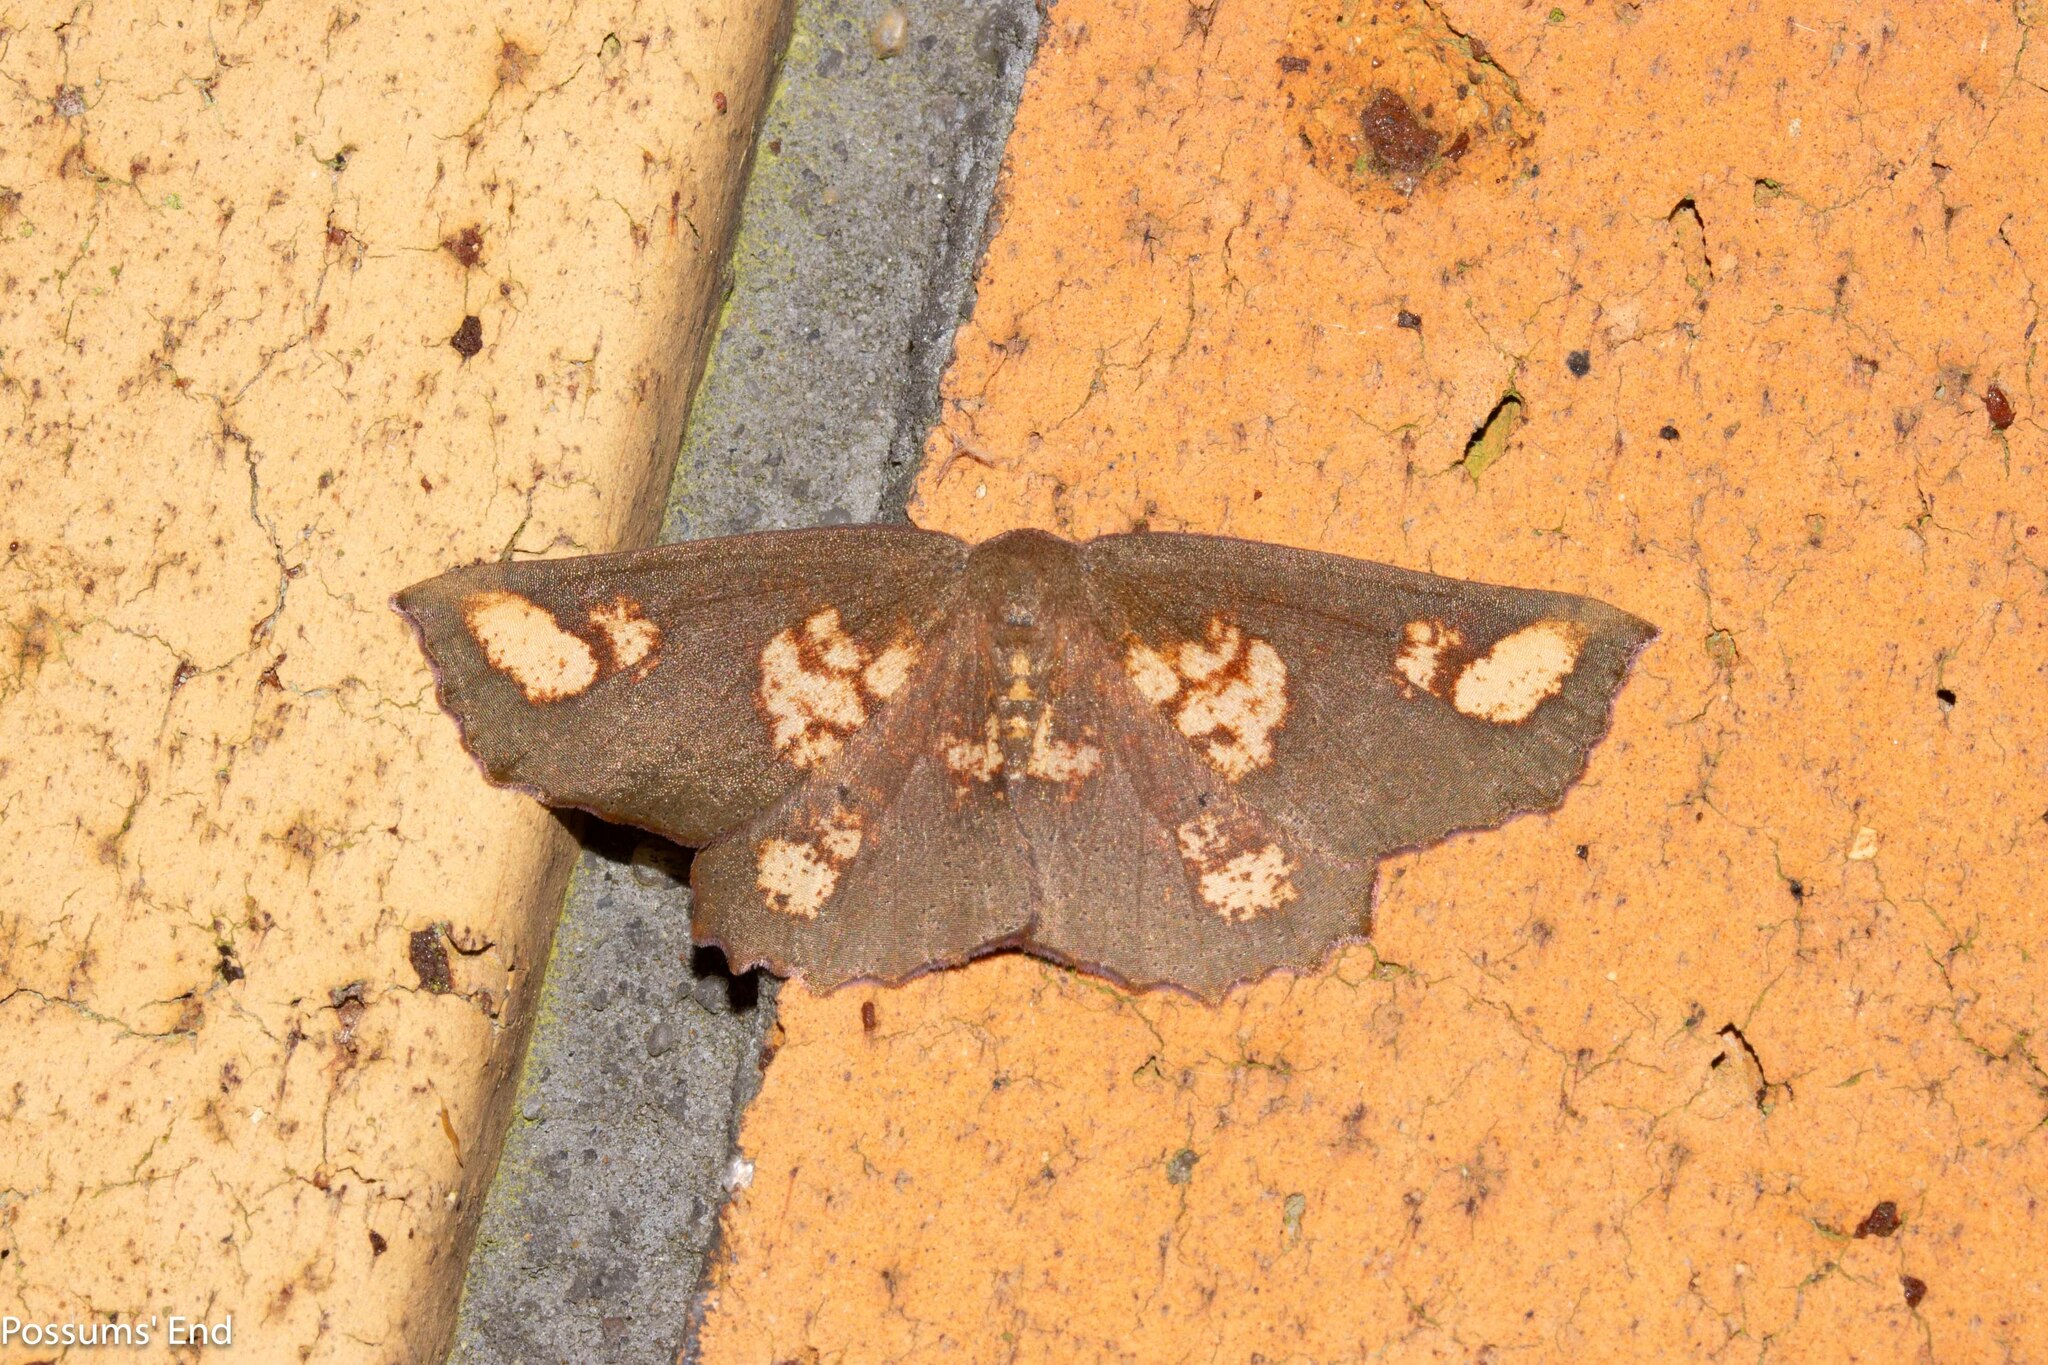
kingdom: Animalia
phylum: Arthropoda
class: Insecta
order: Lepidoptera
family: Geometridae
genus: Xyridacma
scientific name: Xyridacma ustaria
